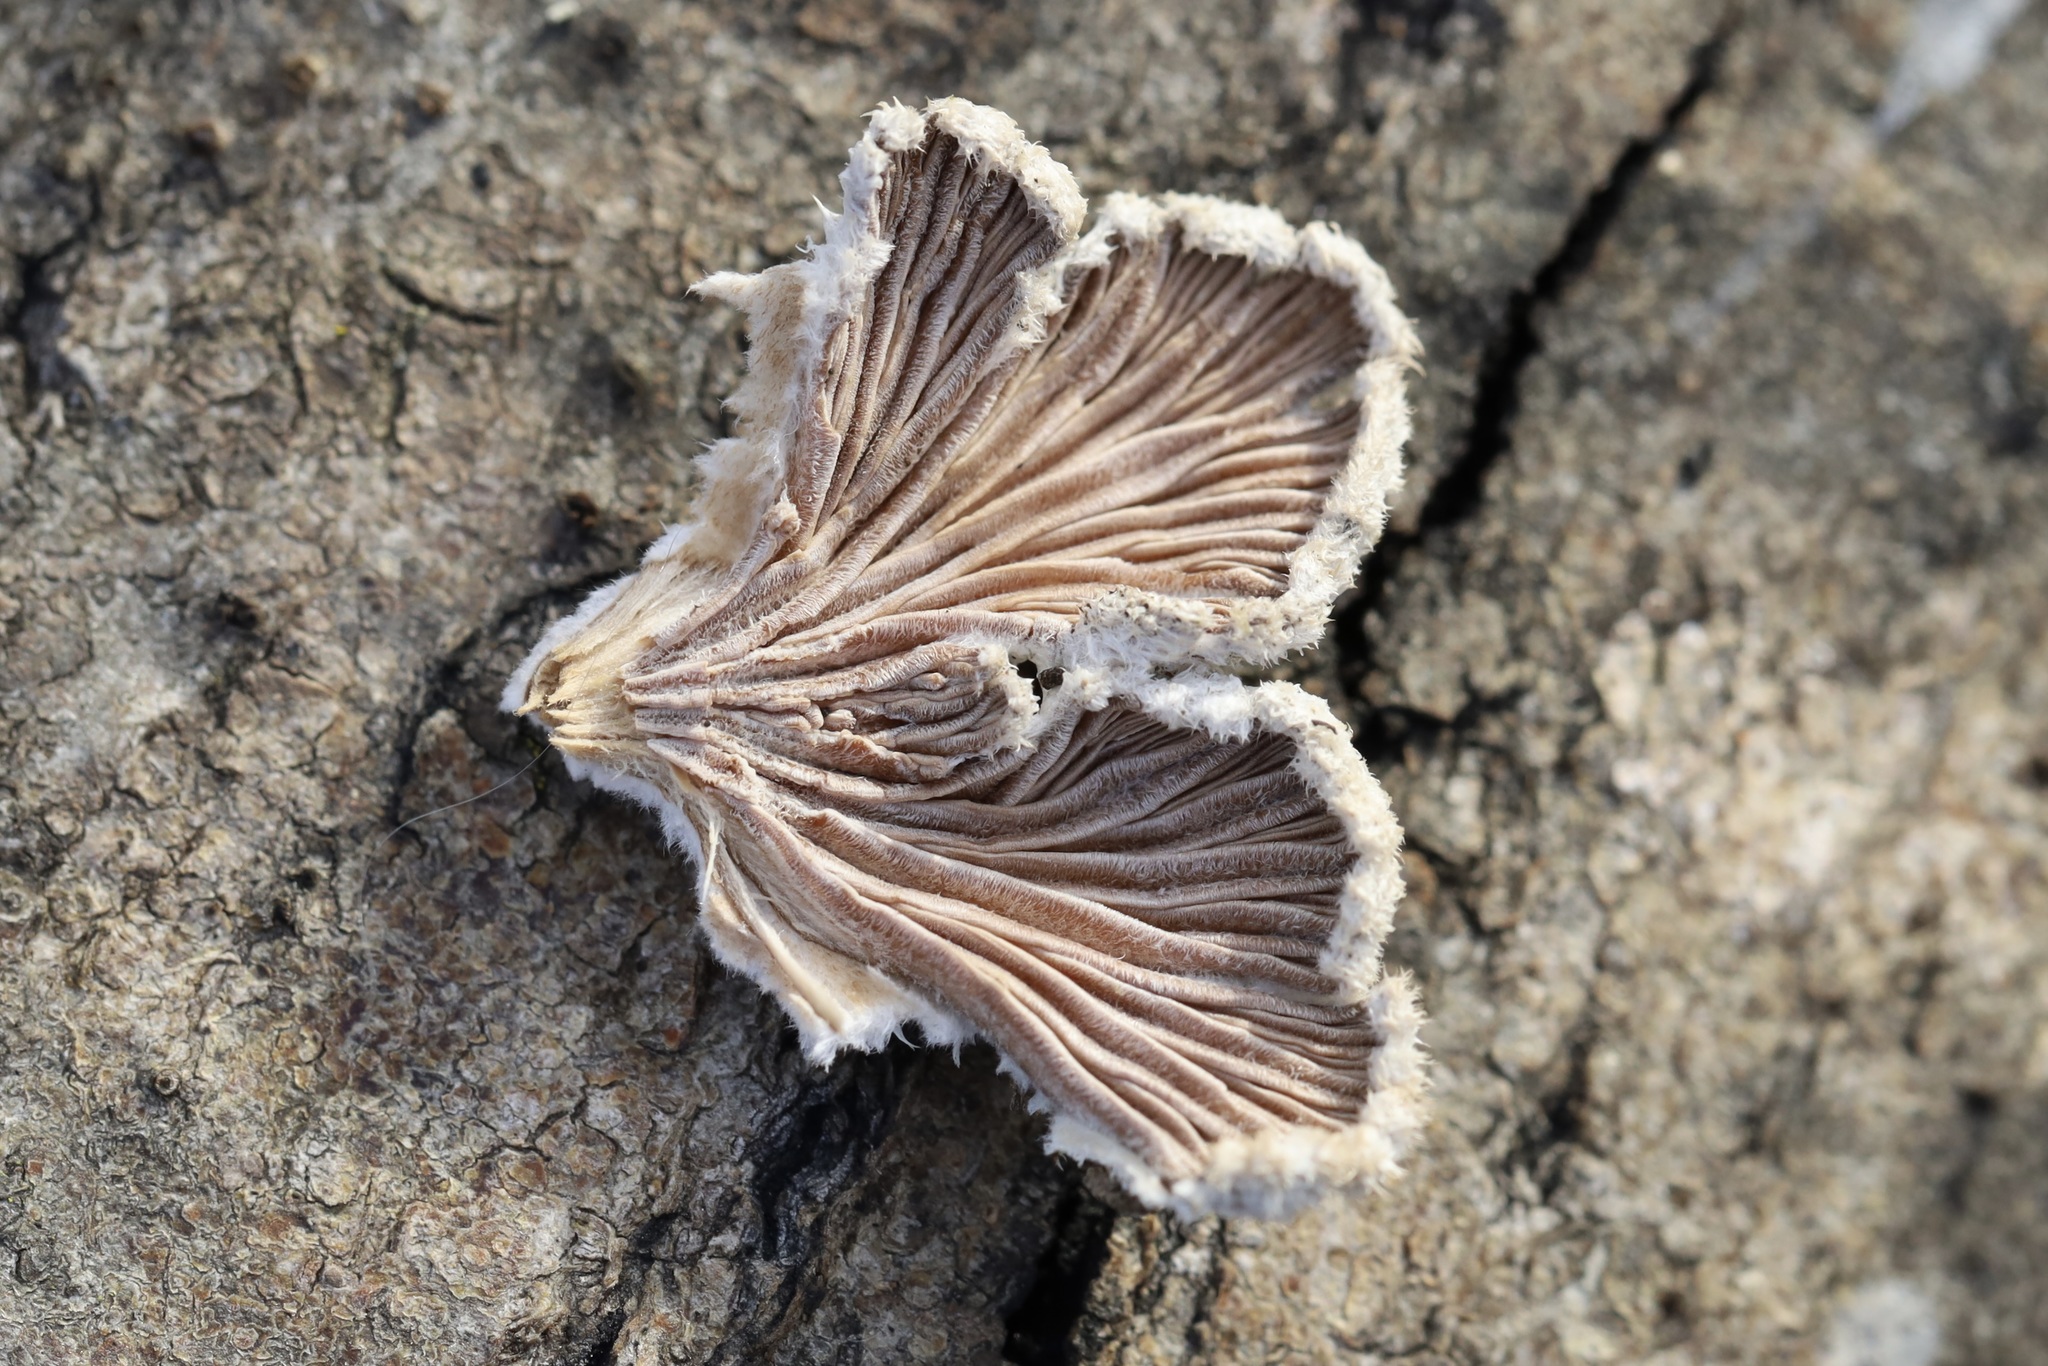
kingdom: Fungi
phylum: Basidiomycota
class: Agaricomycetes
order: Agaricales
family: Schizophyllaceae
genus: Schizophyllum
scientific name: Schizophyllum commune
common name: Common porecrust
